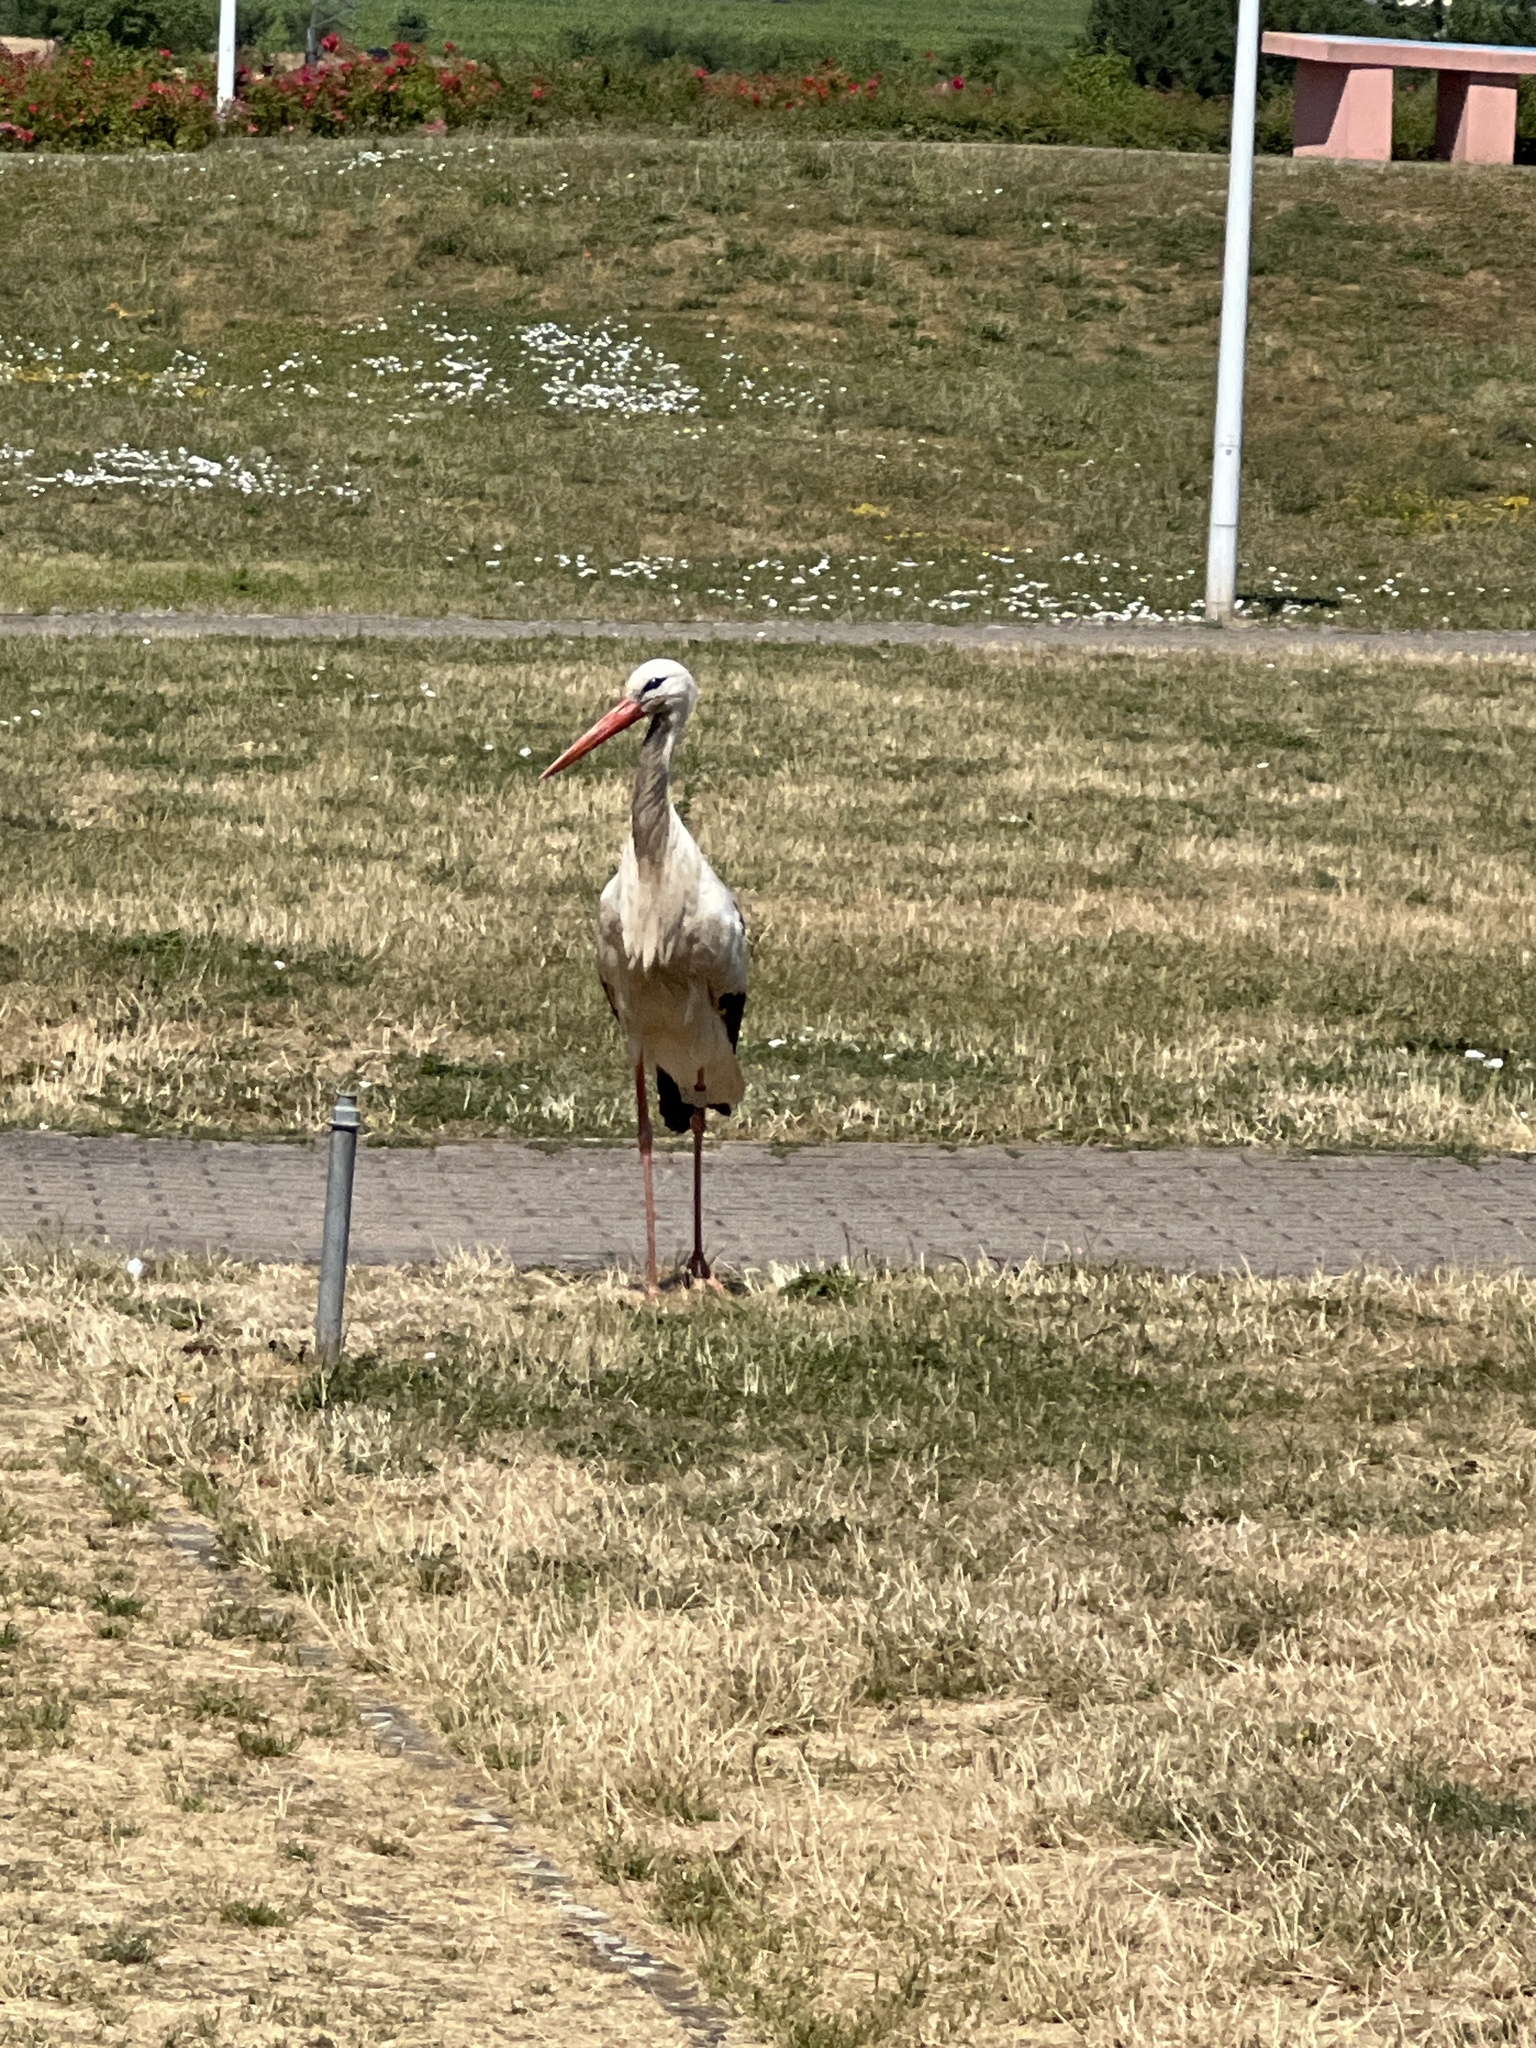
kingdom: Animalia
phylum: Chordata
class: Aves
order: Ciconiiformes
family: Ciconiidae
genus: Ciconia
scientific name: Ciconia ciconia
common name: White stork
